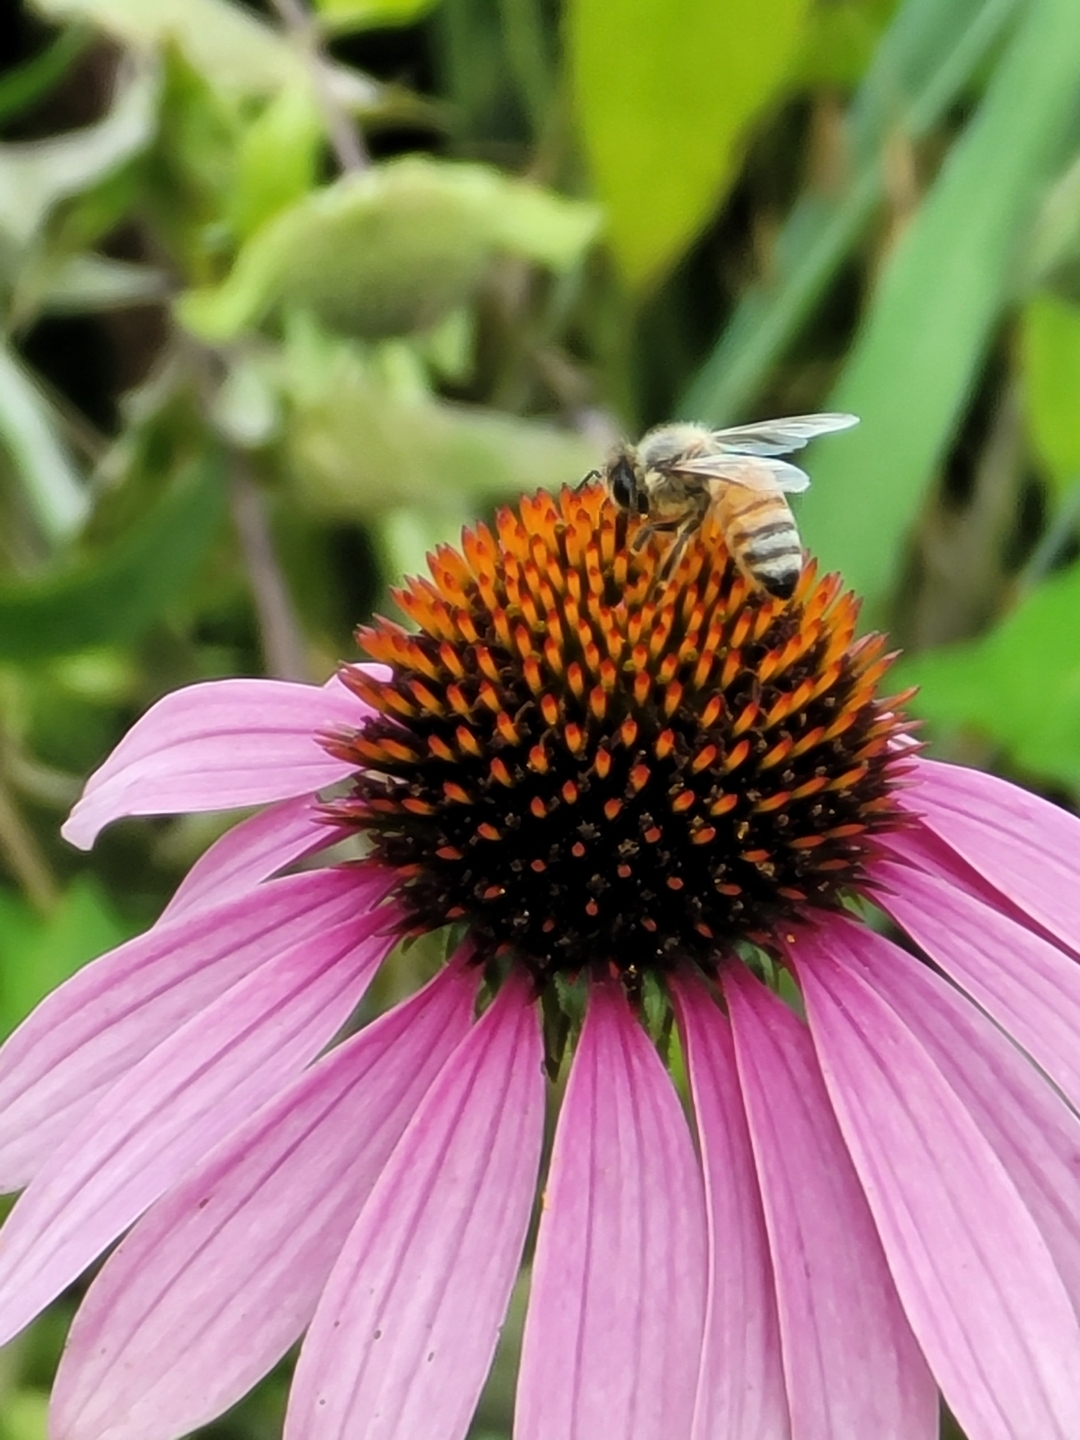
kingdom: Animalia
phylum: Arthropoda
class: Insecta
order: Hymenoptera
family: Apidae
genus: Apis
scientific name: Apis mellifera
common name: Honey bee
